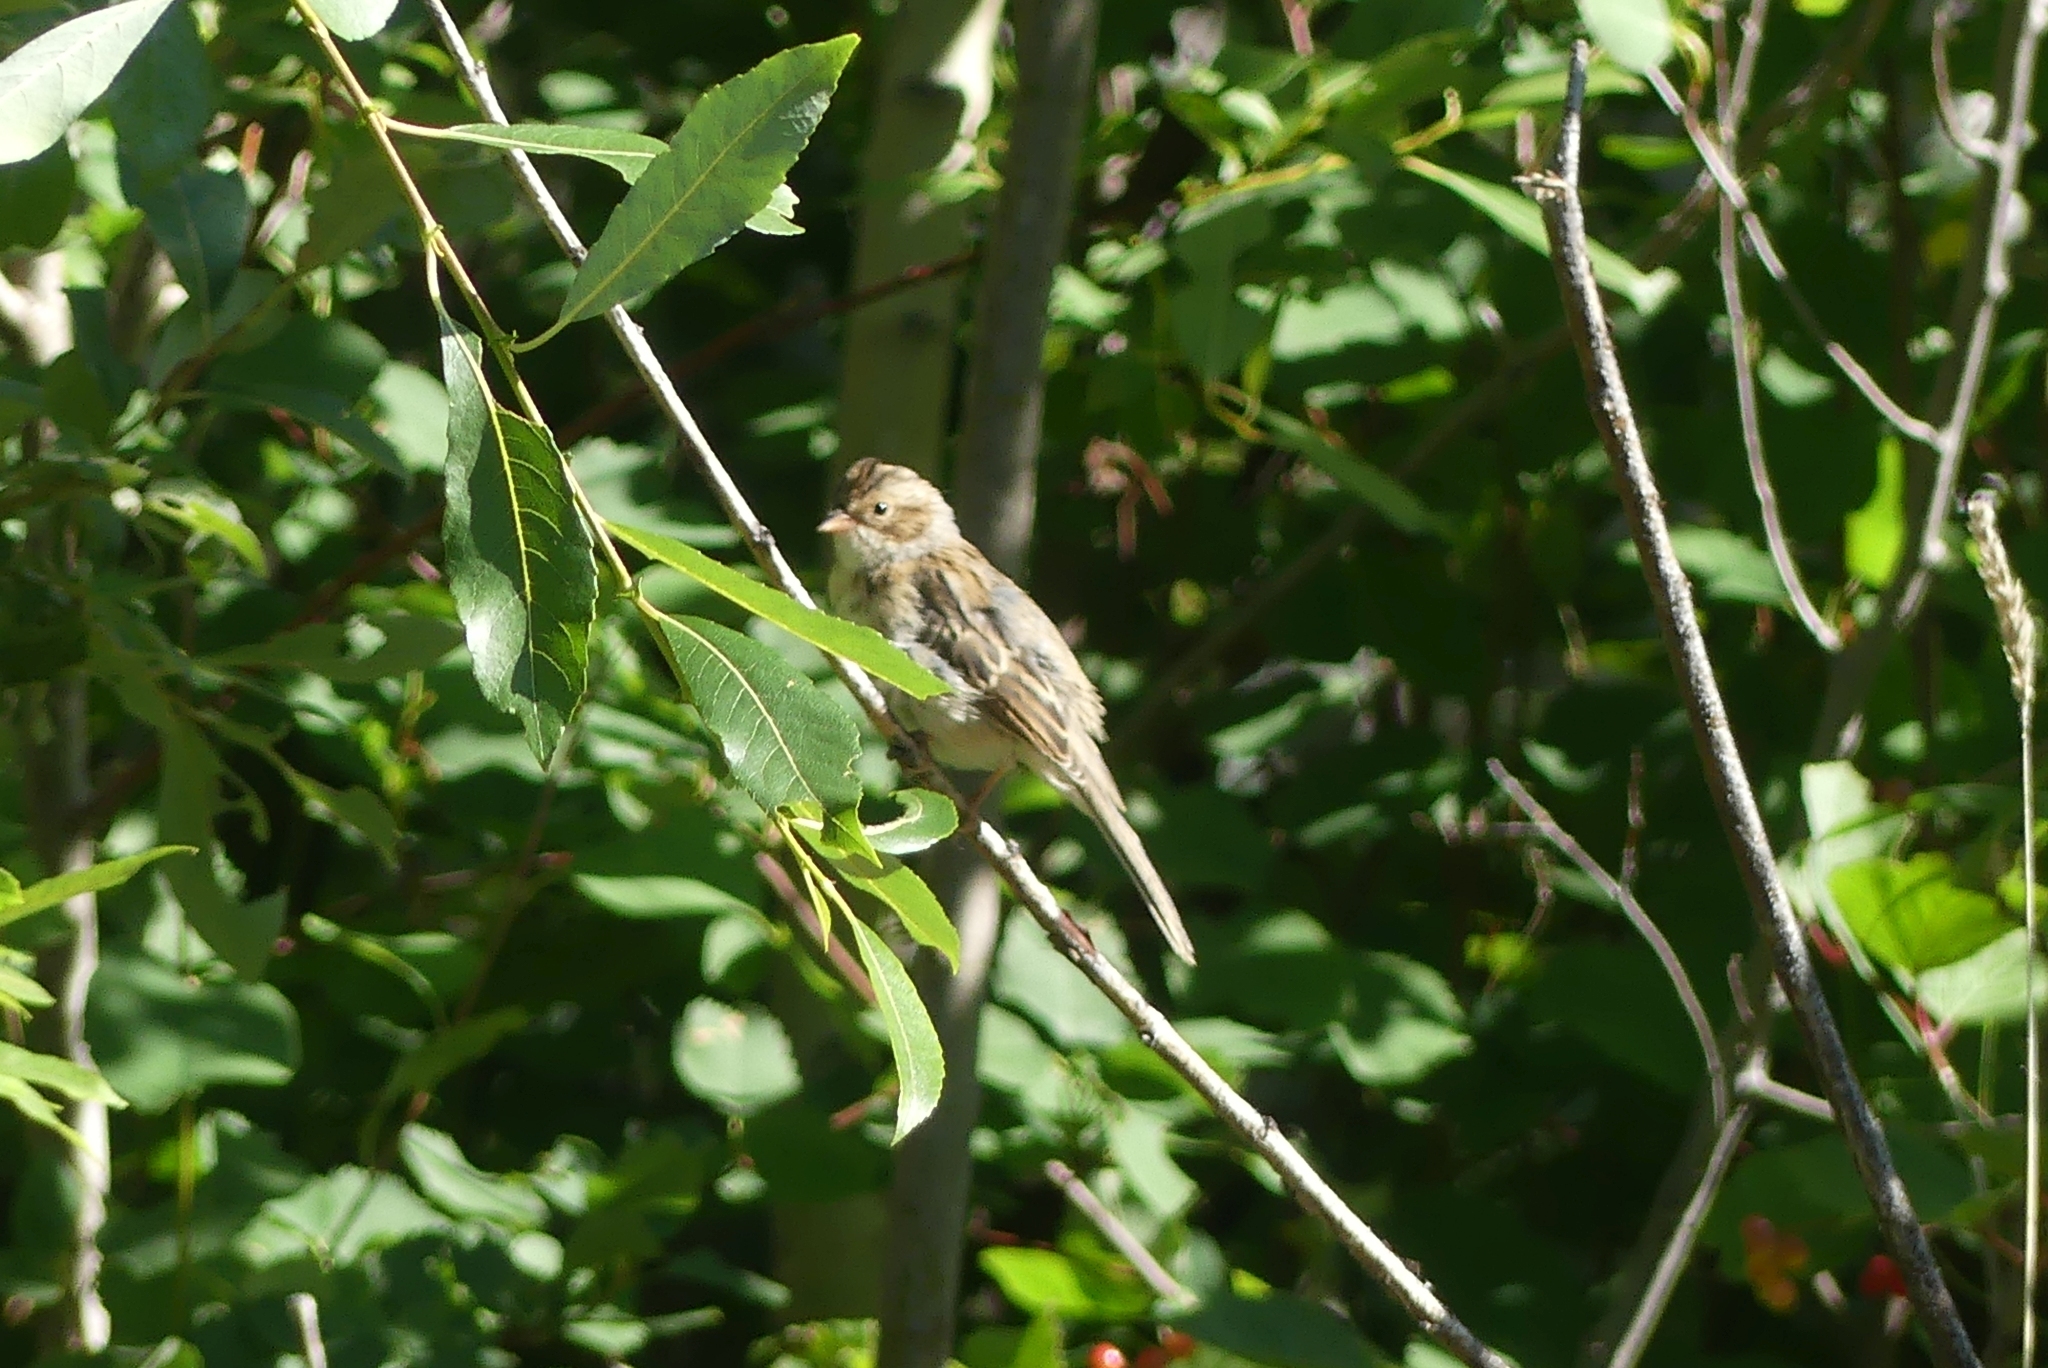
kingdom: Animalia
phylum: Chordata
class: Aves
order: Passeriformes
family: Passerellidae
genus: Spizella
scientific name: Spizella pallida
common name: Clay-colored sparrow
